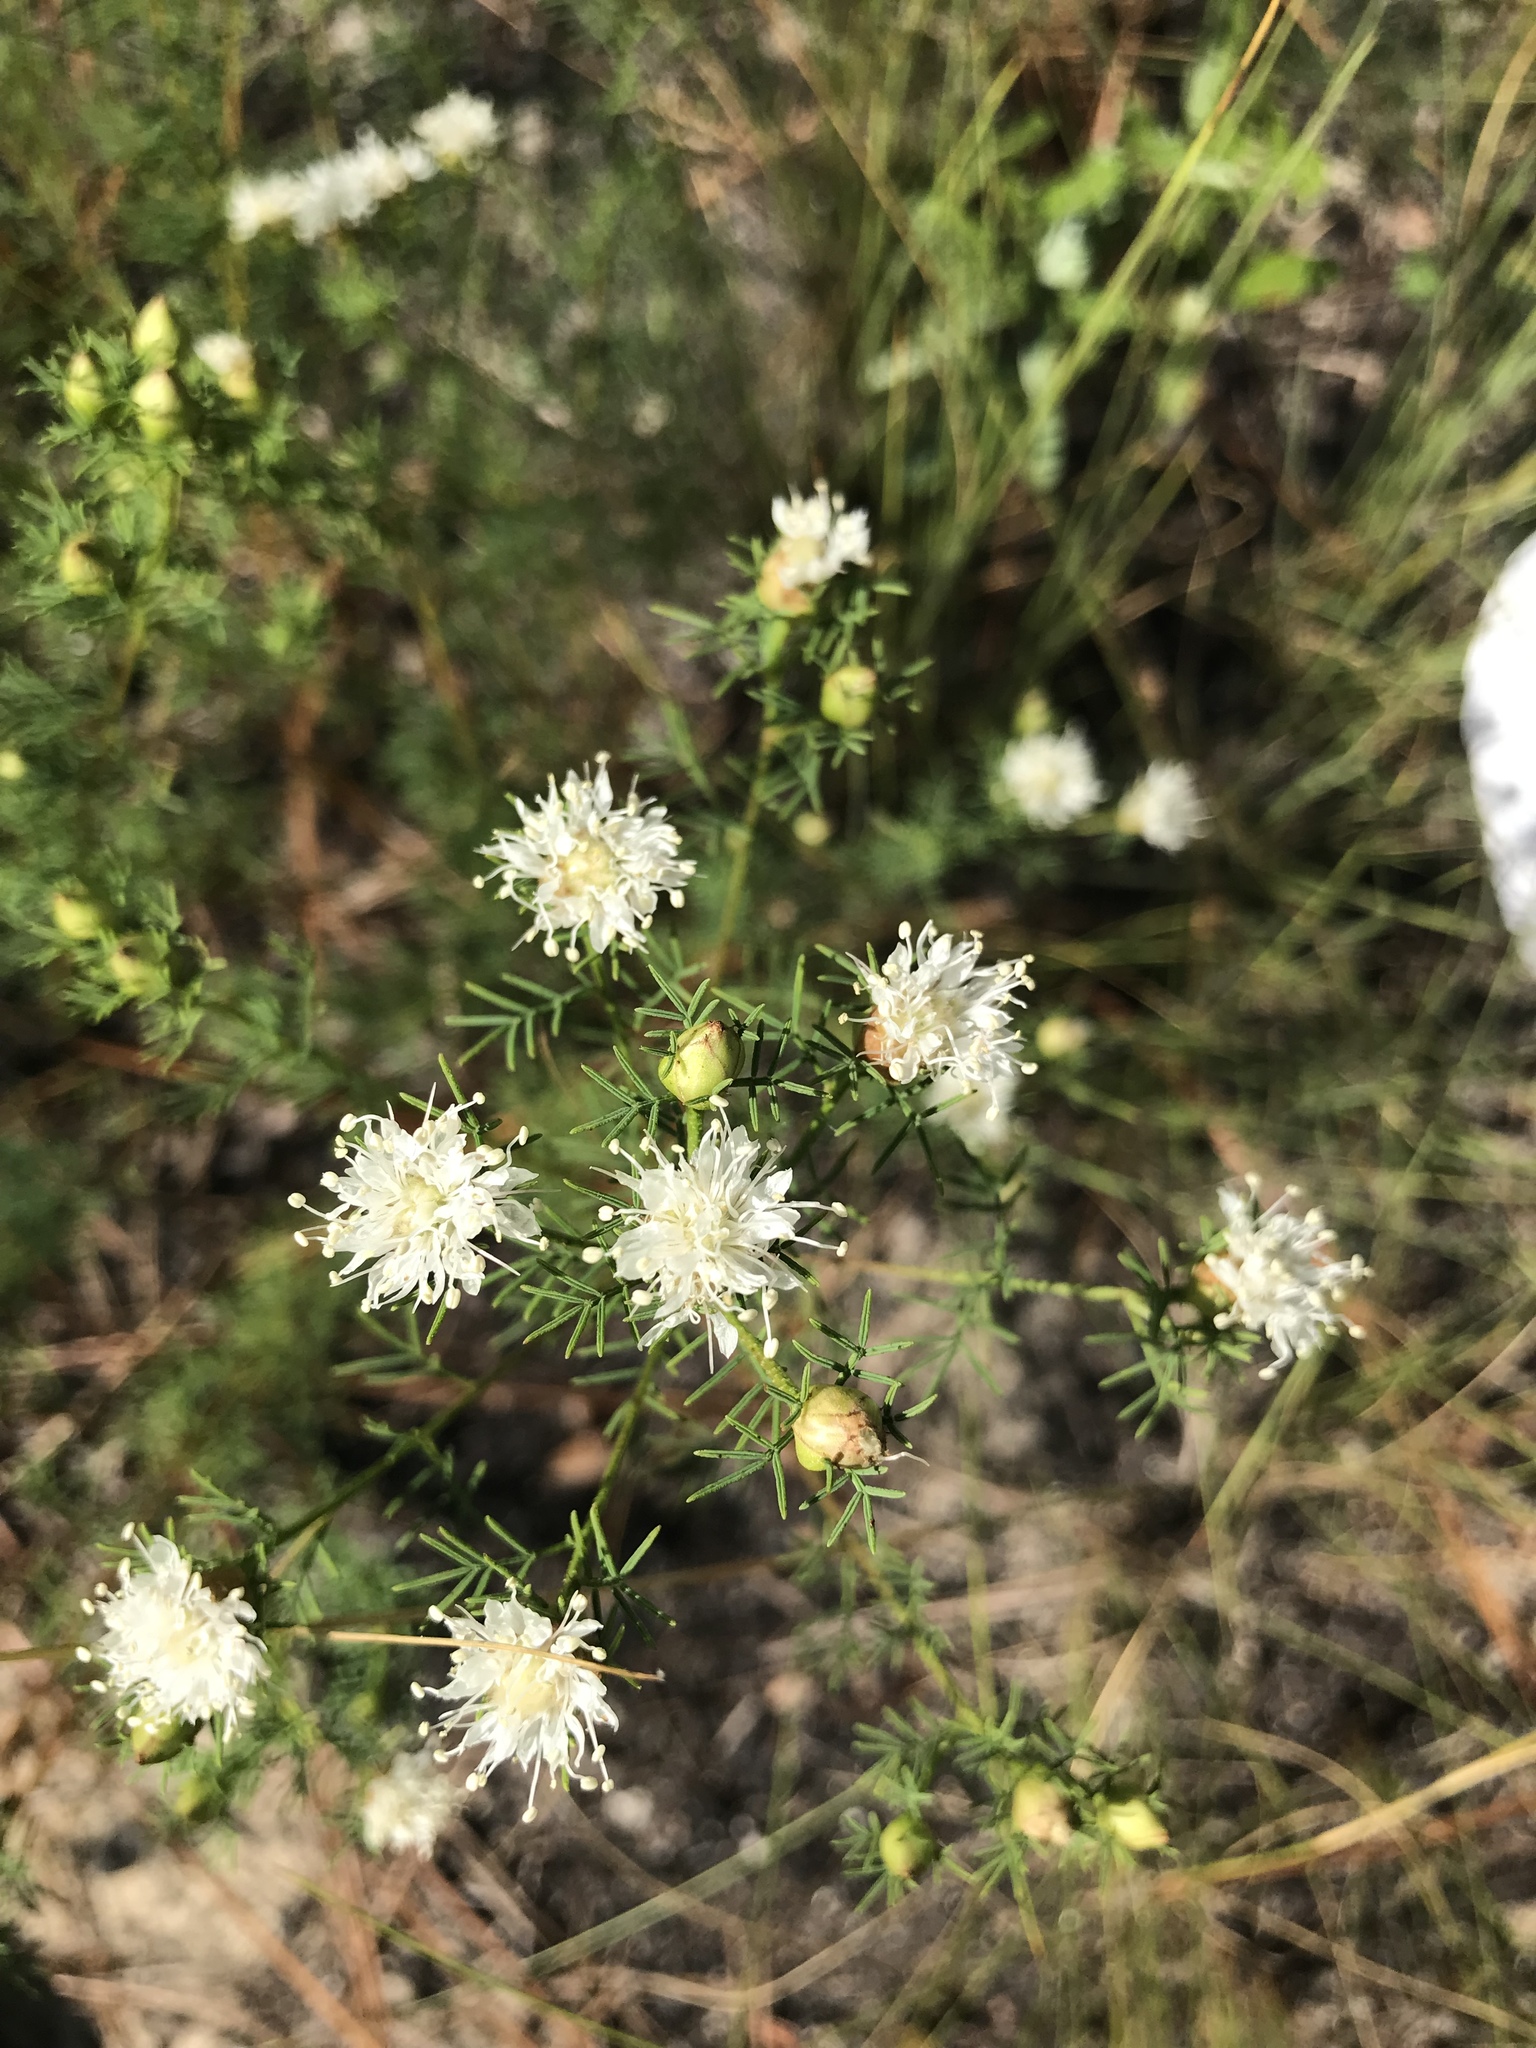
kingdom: Plantae
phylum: Tracheophyta
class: Magnoliopsida
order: Fabales
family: Fabaceae
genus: Dalea
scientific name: Dalea pinnata
